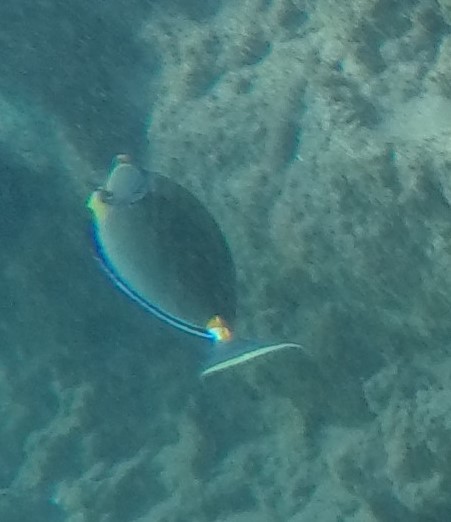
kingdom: Animalia
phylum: Chordata
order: Perciformes
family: Acanthuridae
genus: Naso
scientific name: Naso lituratus
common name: Orangespine unicornfish
